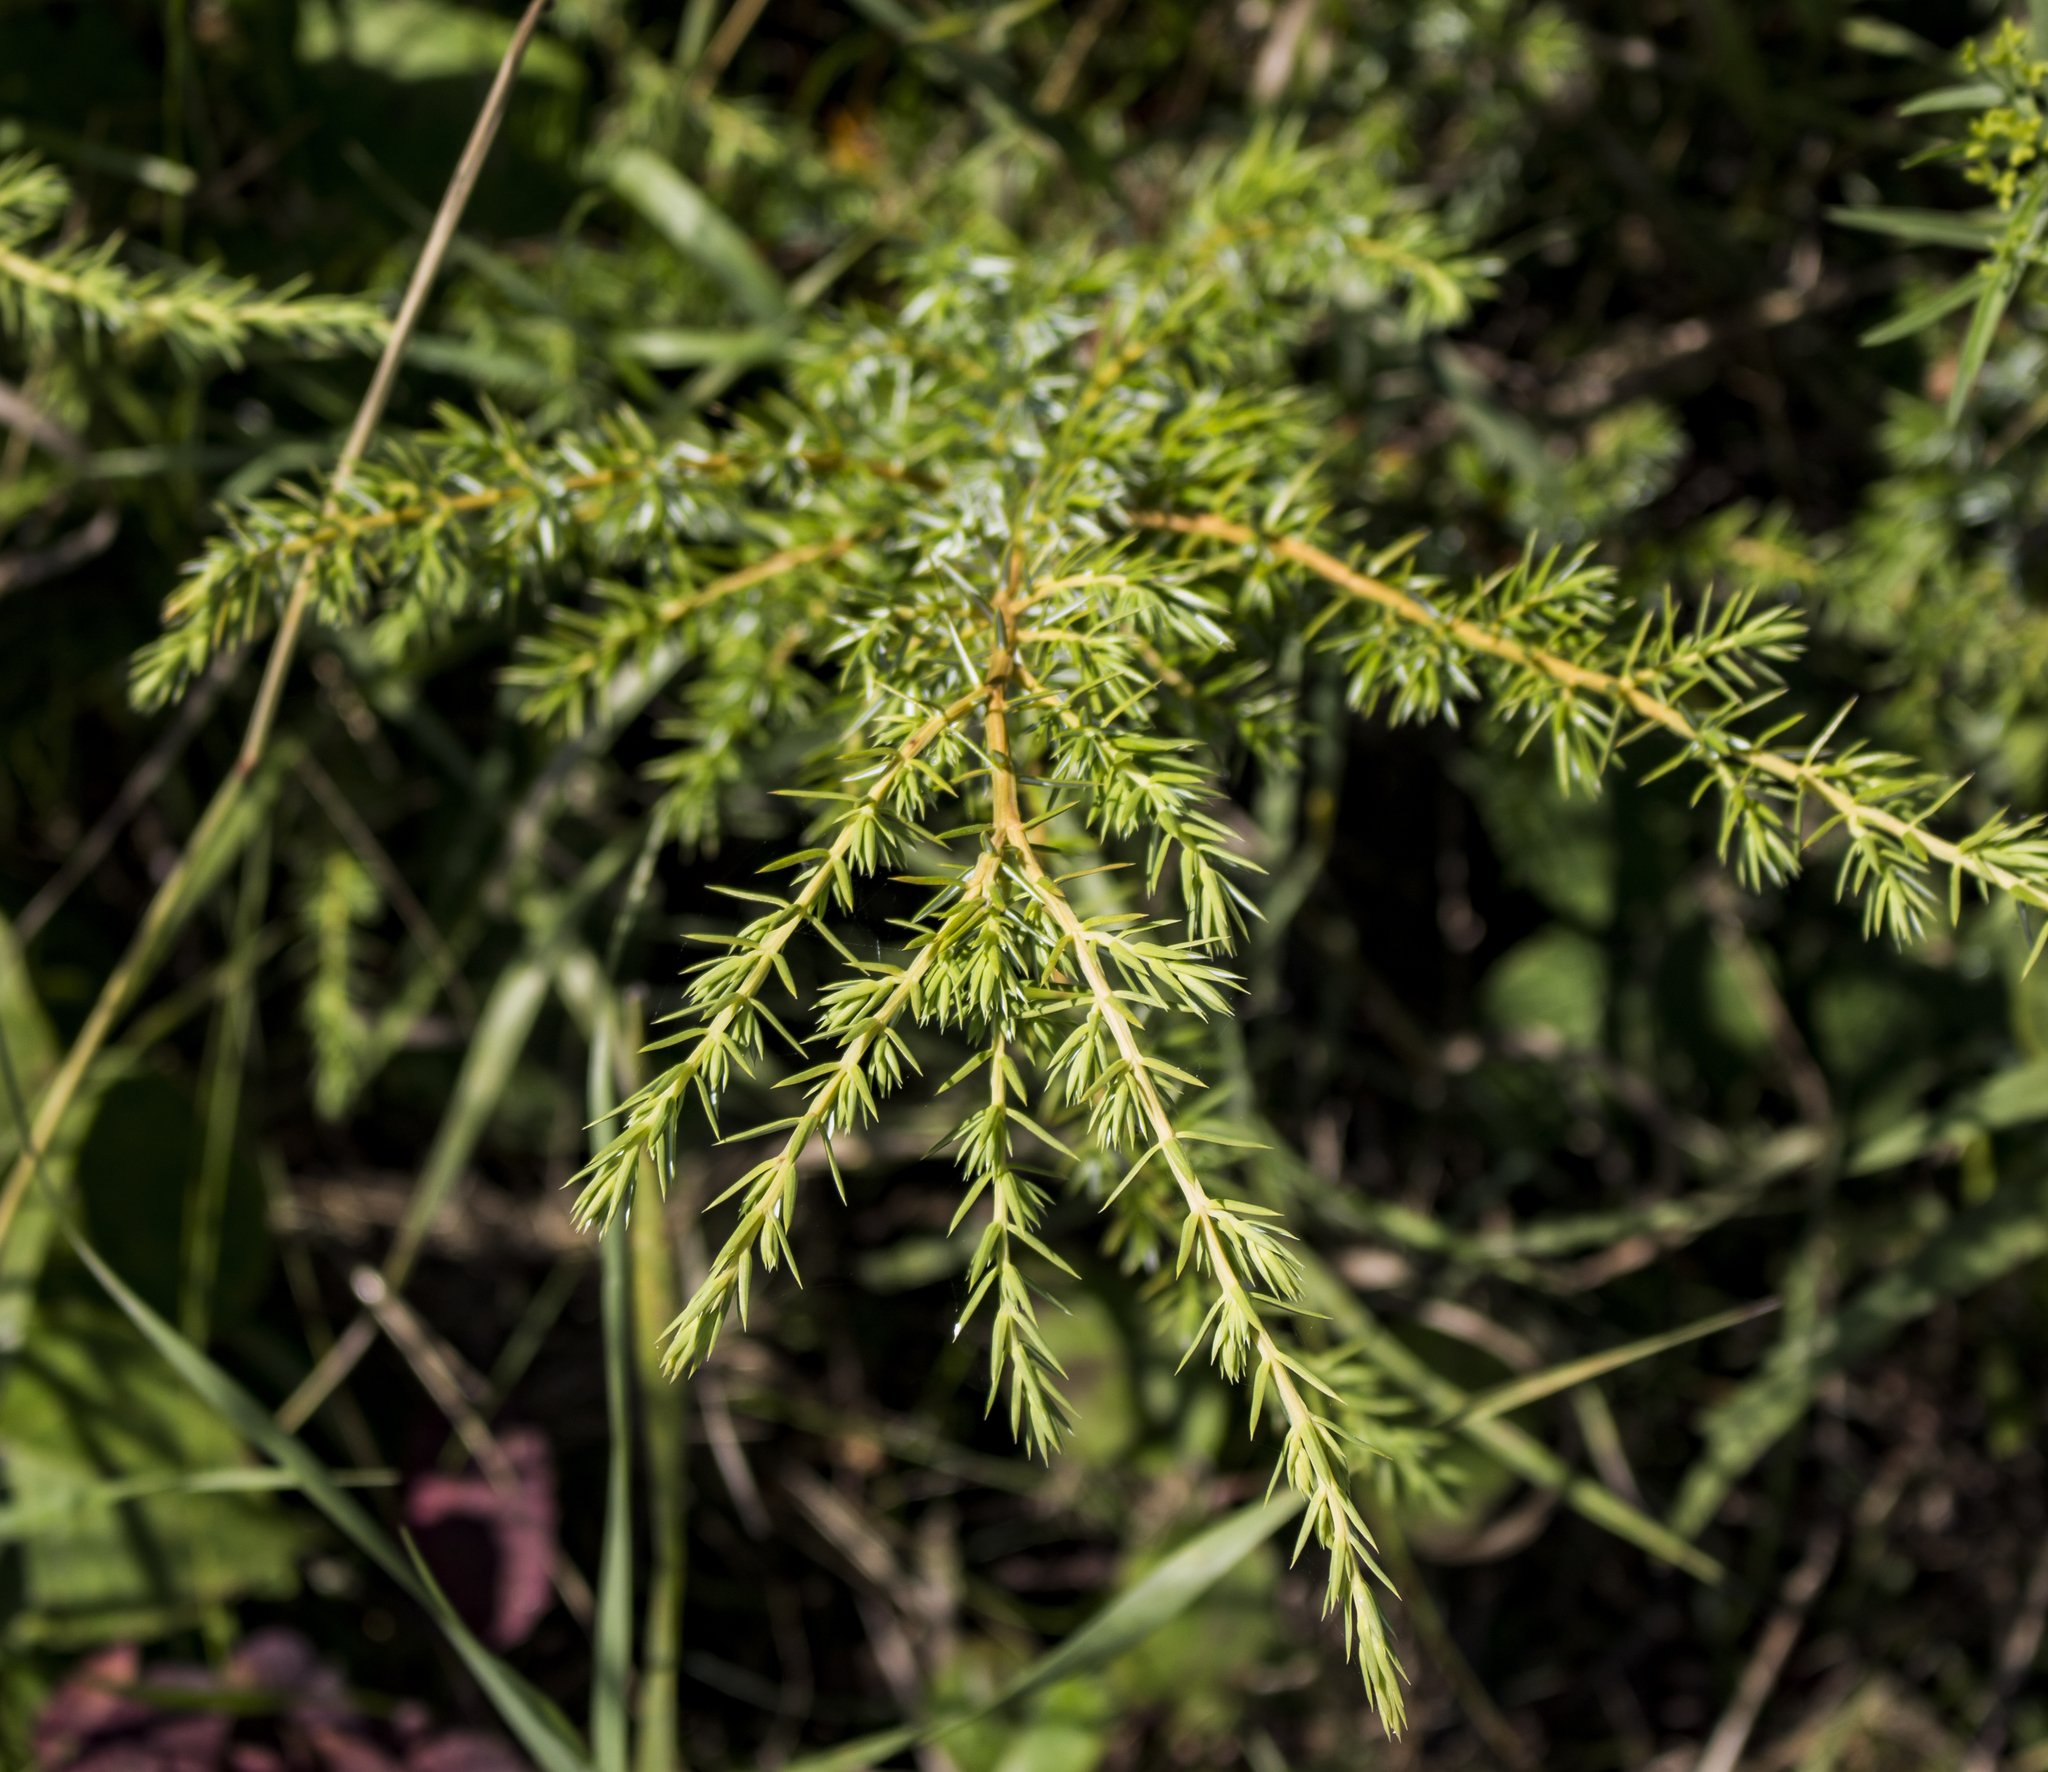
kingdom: Plantae
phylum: Tracheophyta
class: Pinopsida
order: Pinales
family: Cupressaceae
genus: Juniperus
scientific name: Juniperus communis
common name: Common juniper
